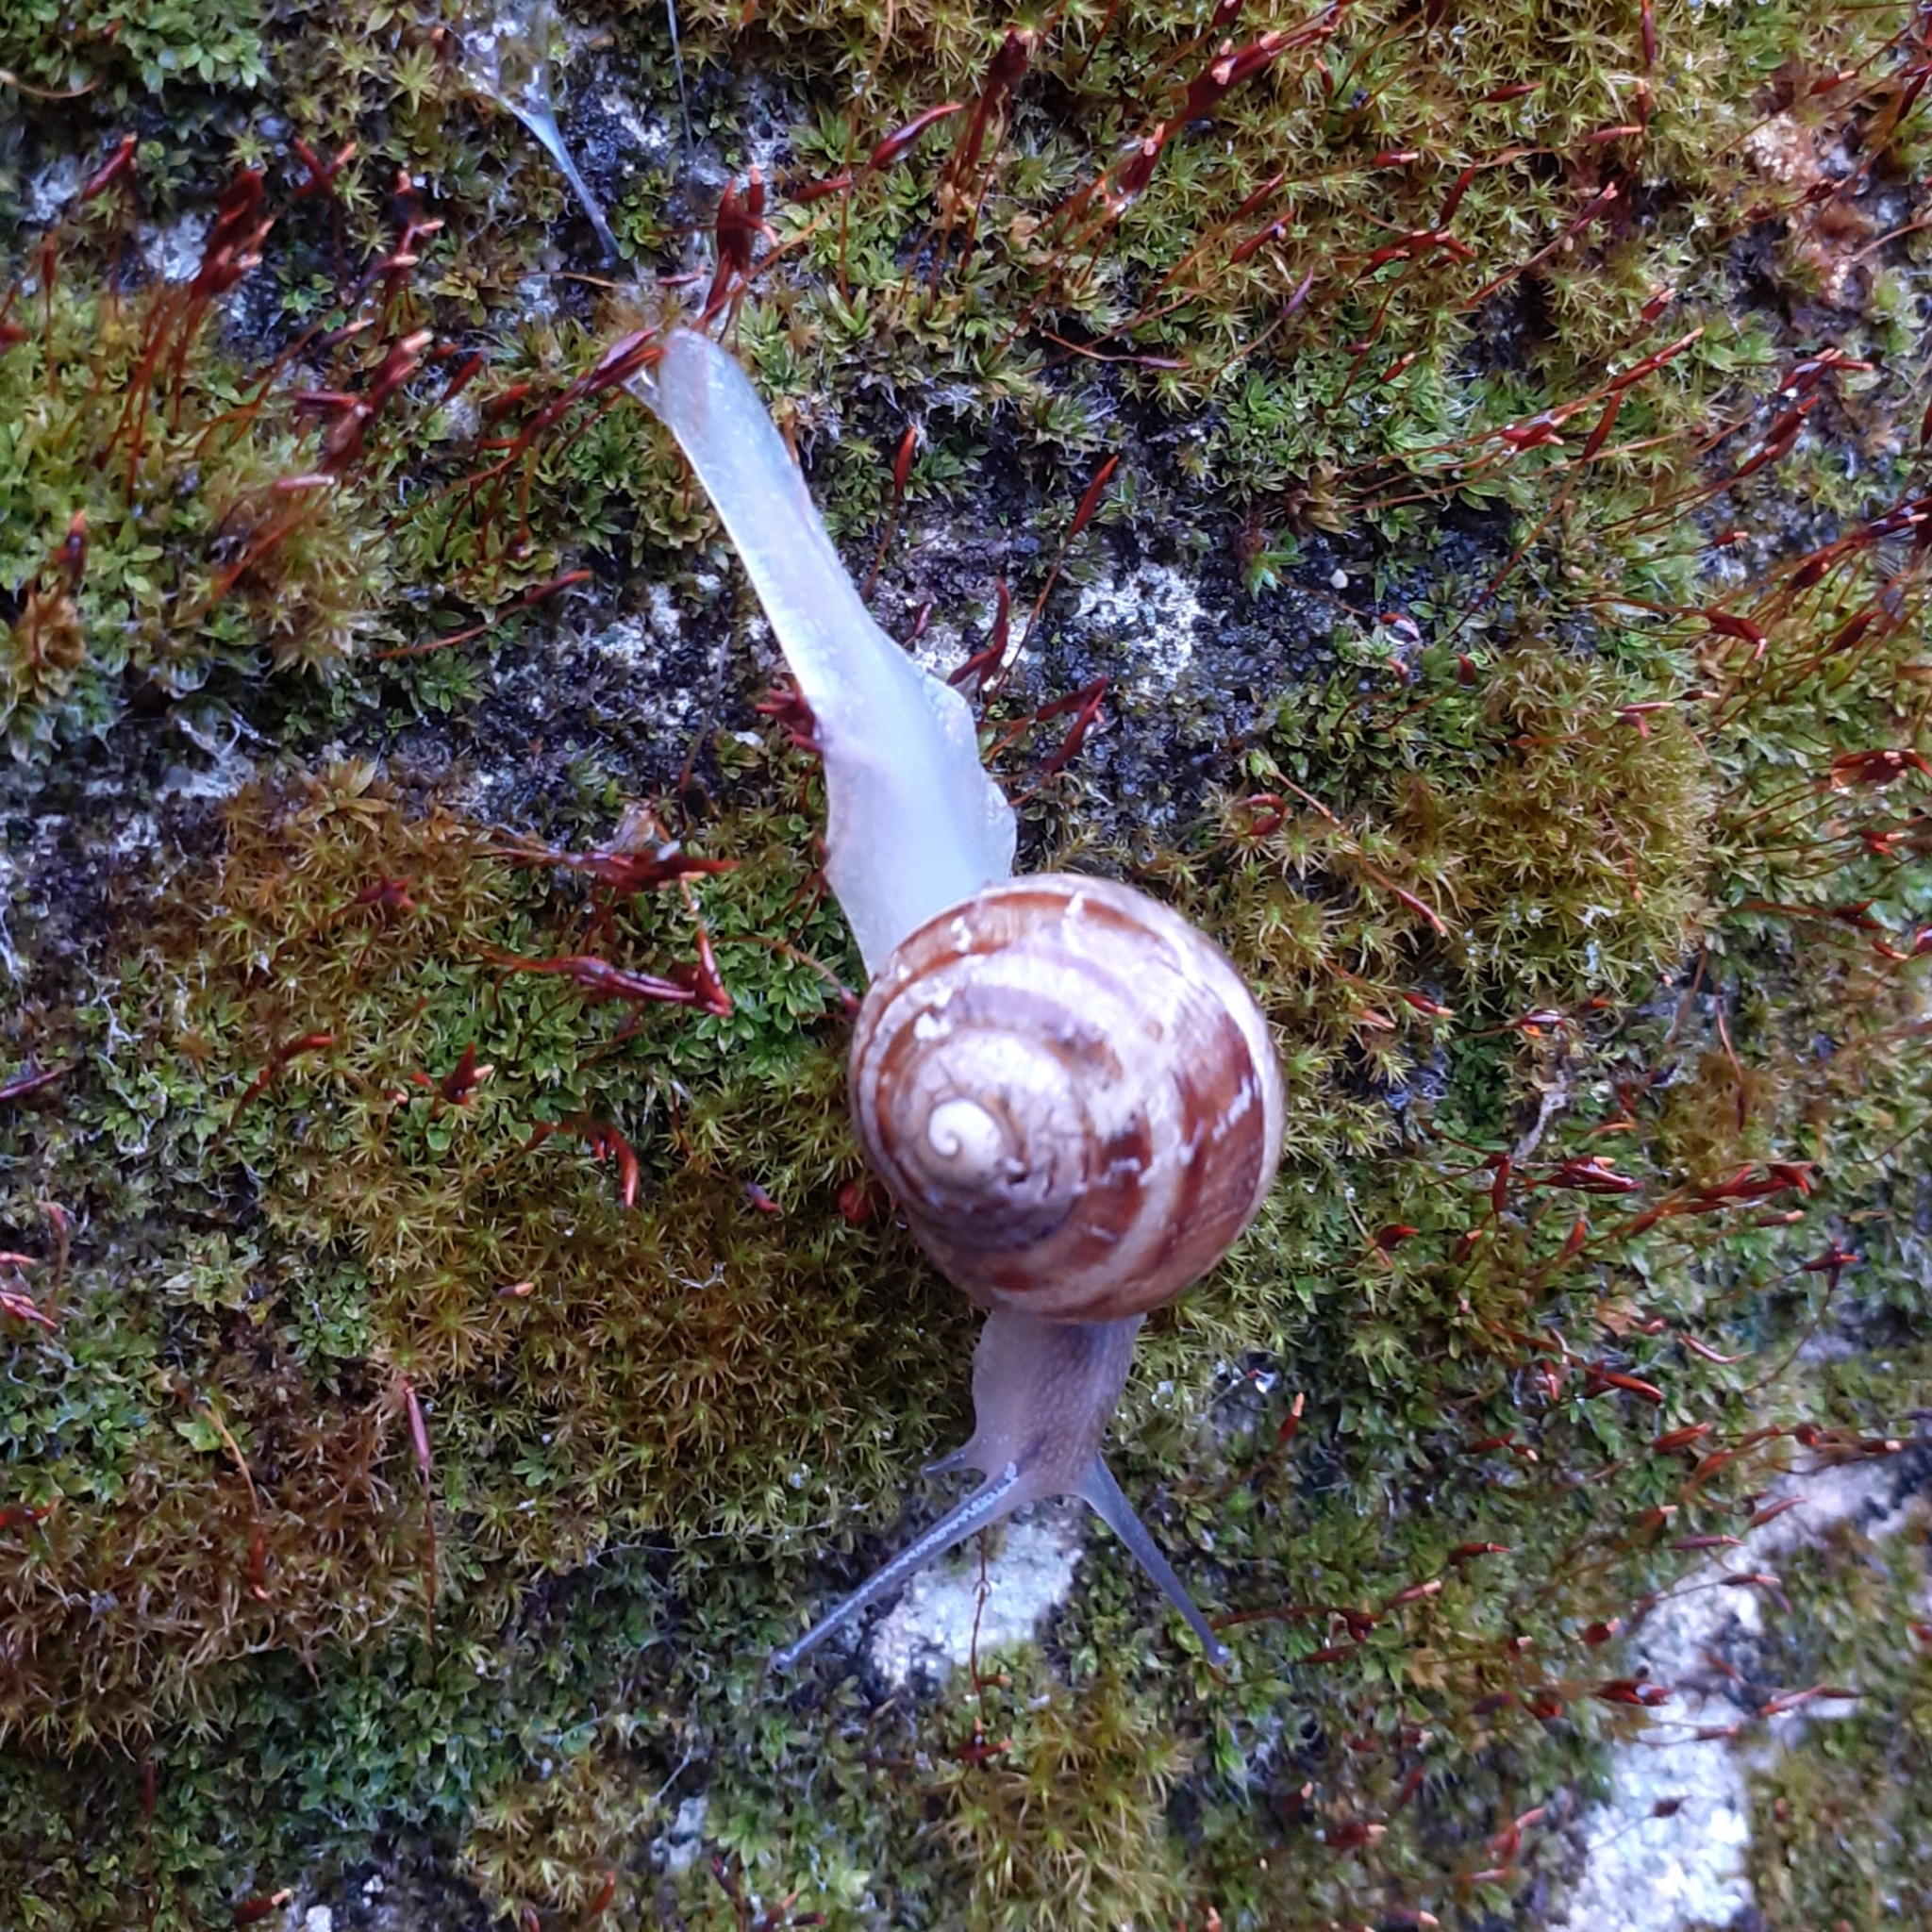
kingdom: Animalia
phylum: Mollusca
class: Gastropoda
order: Stylommatophora
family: Helicidae
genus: Cornu
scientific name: Cornu aspersum
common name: Brown garden snail
